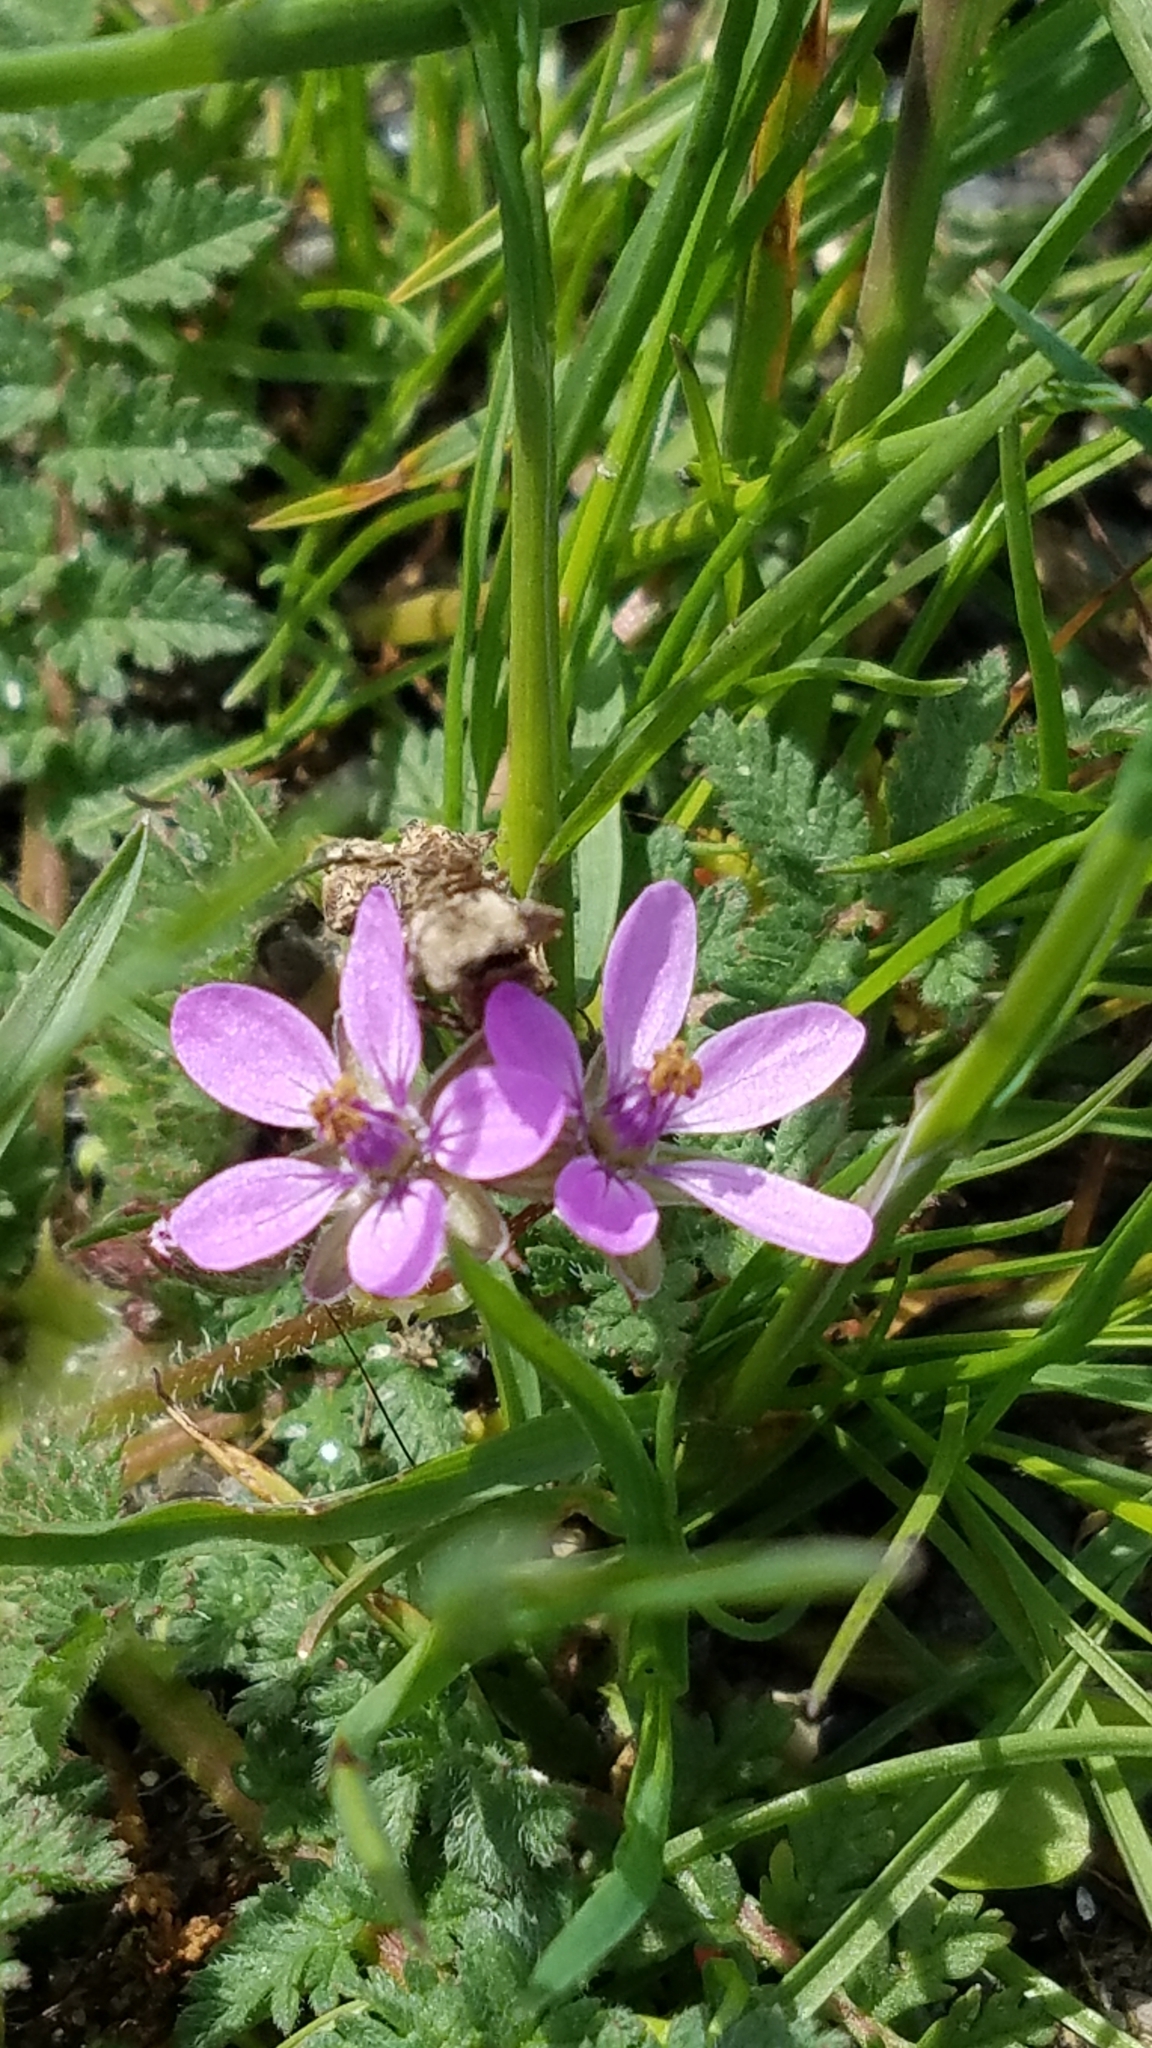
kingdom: Plantae
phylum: Tracheophyta
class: Magnoliopsida
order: Geraniales
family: Geraniaceae
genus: Erodium
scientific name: Erodium cicutarium
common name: Common stork's-bill
